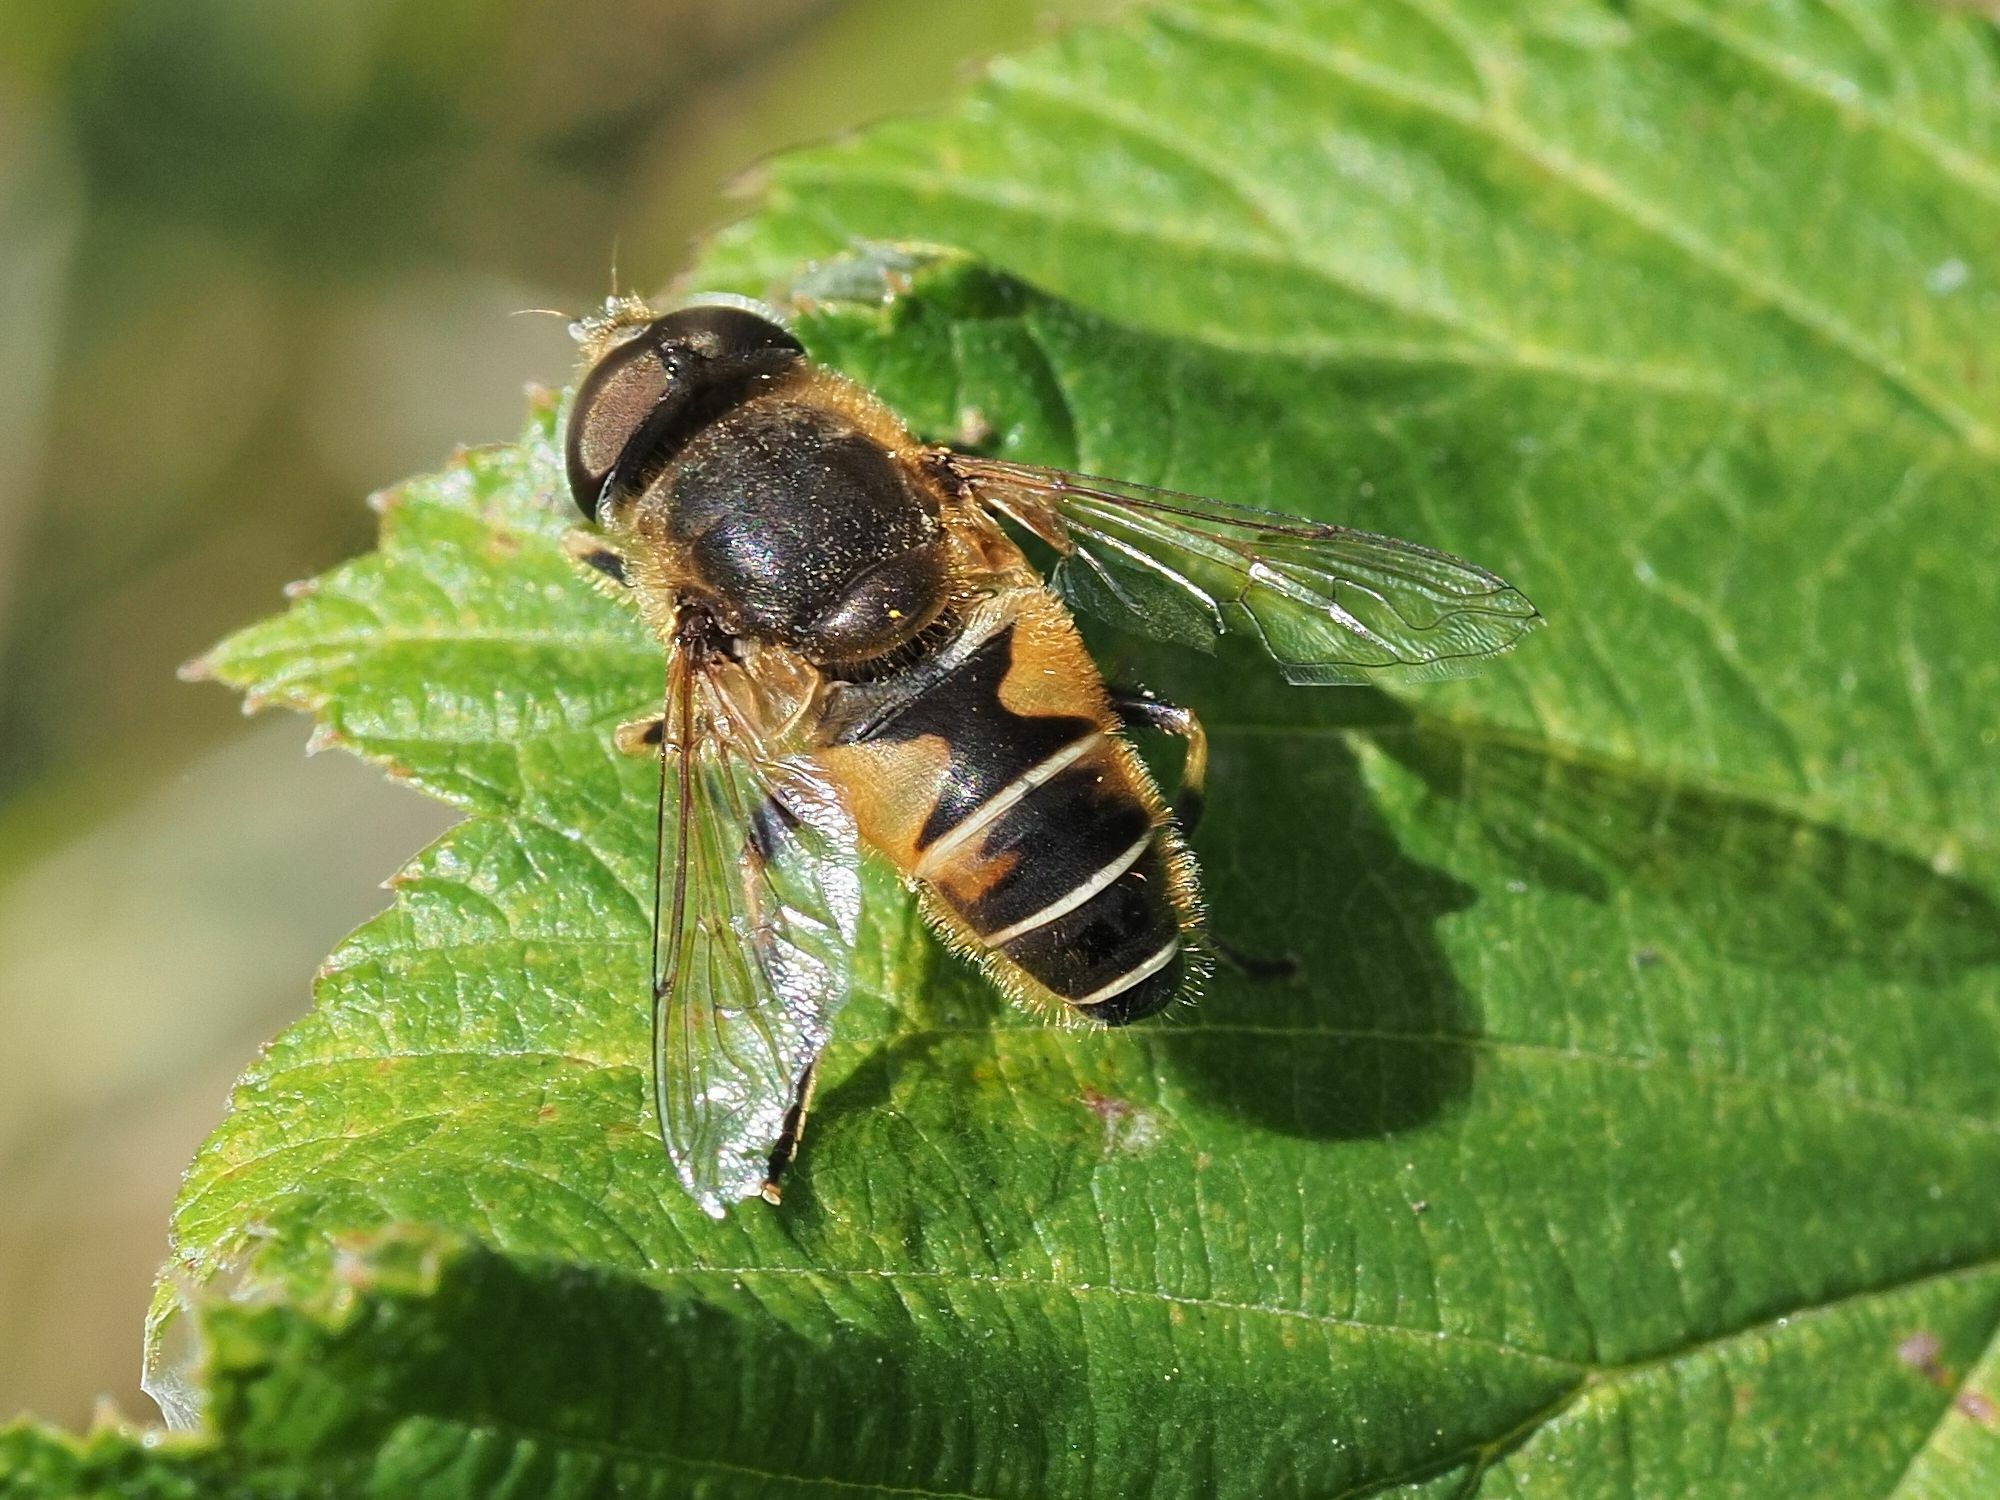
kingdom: Animalia
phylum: Arthropoda
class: Insecta
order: Diptera
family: Syrphidae
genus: Eristalis
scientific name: Eristalis nemorum
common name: Orange-spined drone fly
